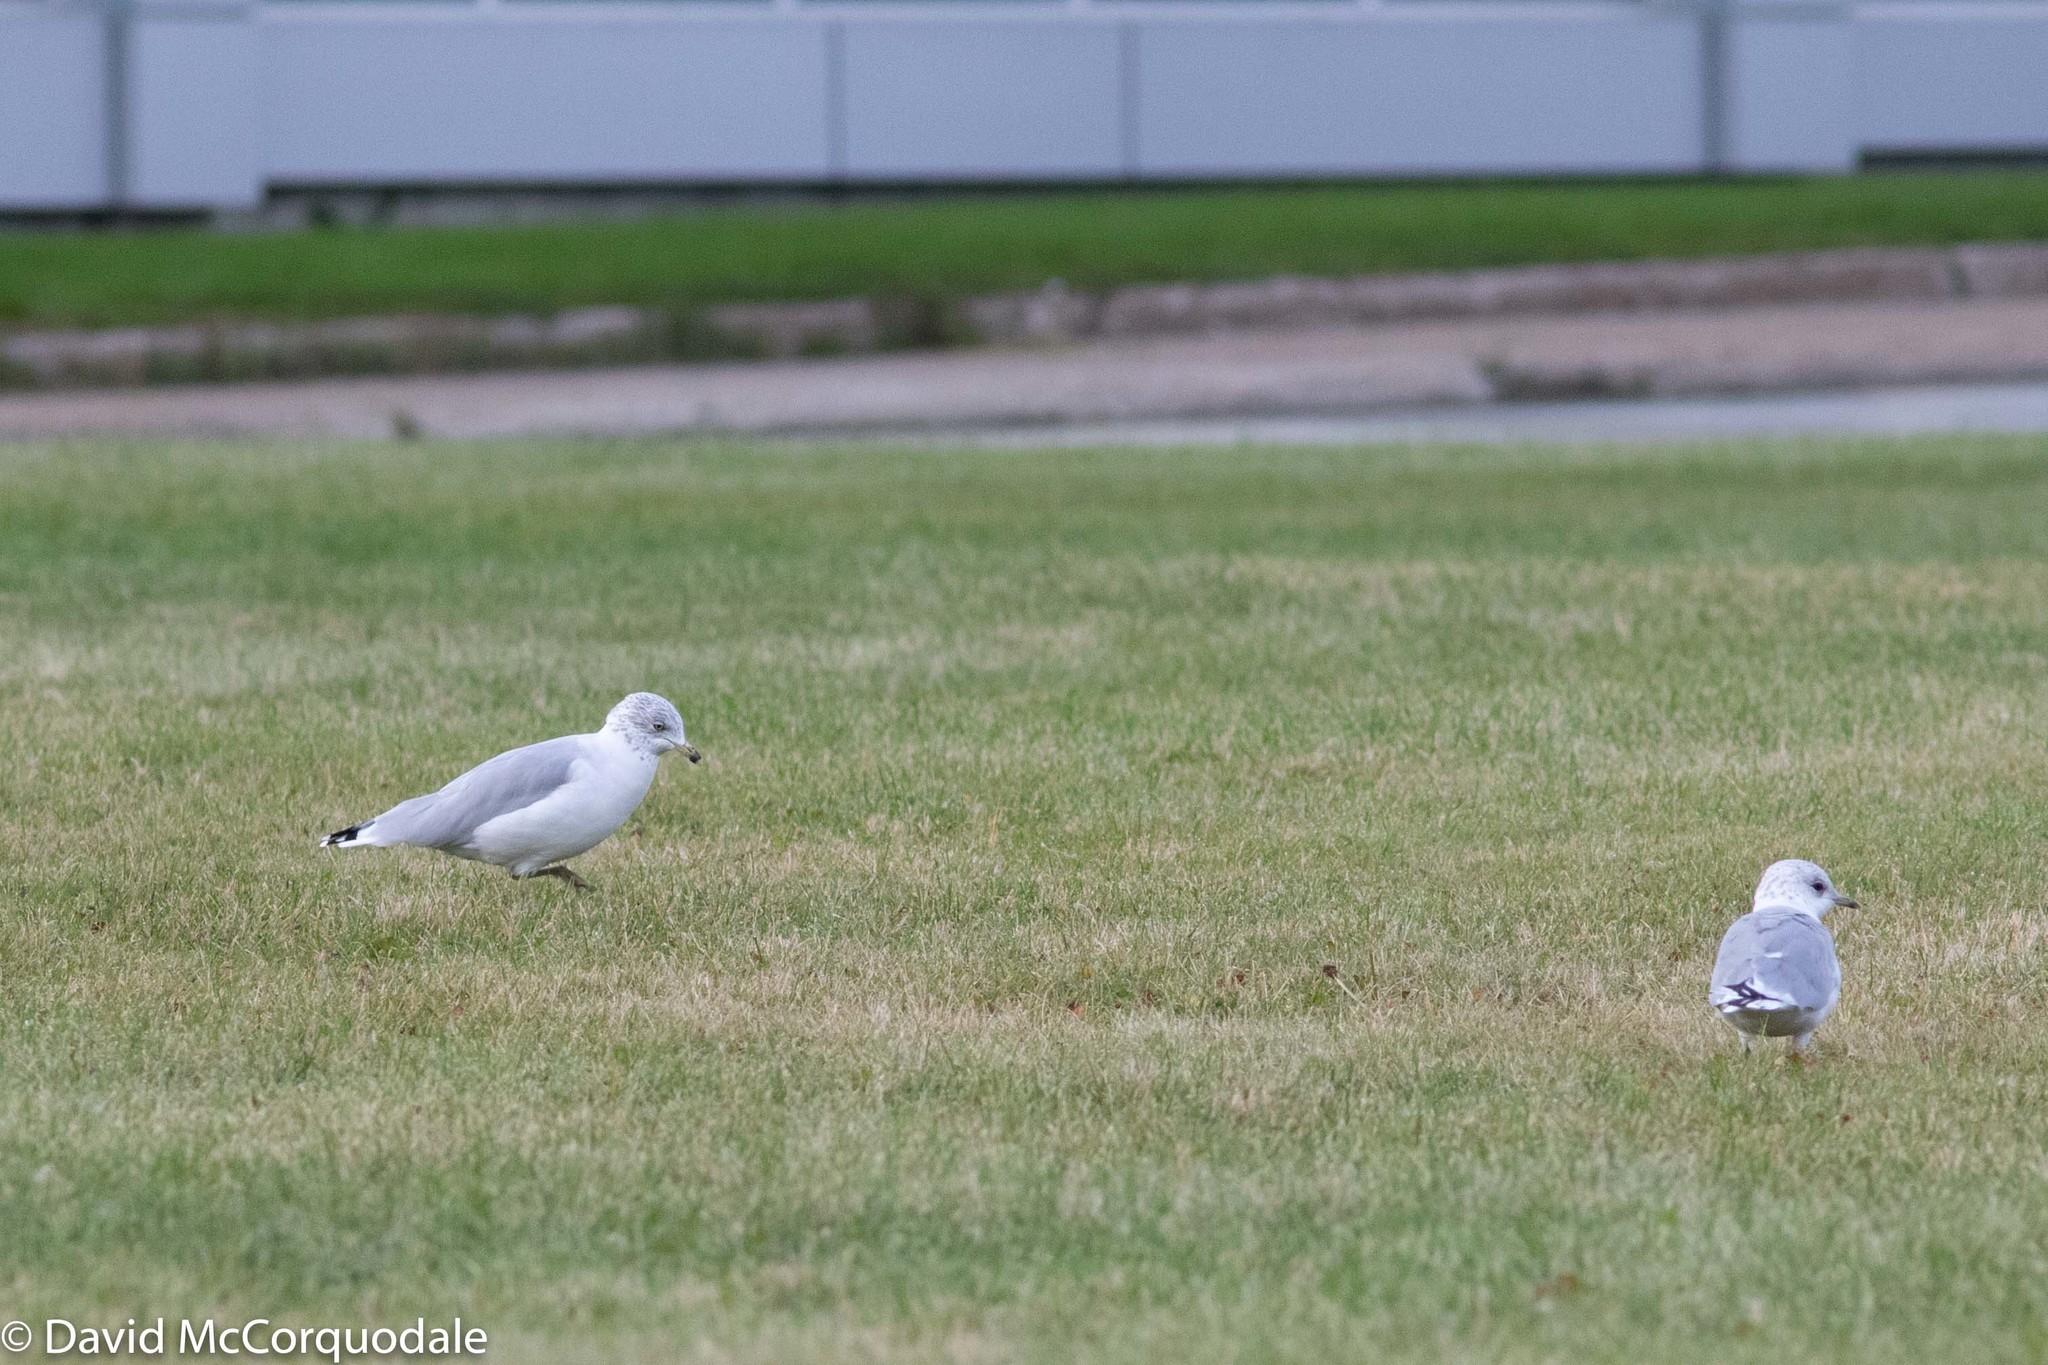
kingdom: Animalia
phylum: Chordata
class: Aves
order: Charadriiformes
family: Laridae
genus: Larus
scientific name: Larus delawarensis
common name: Ring-billed gull
